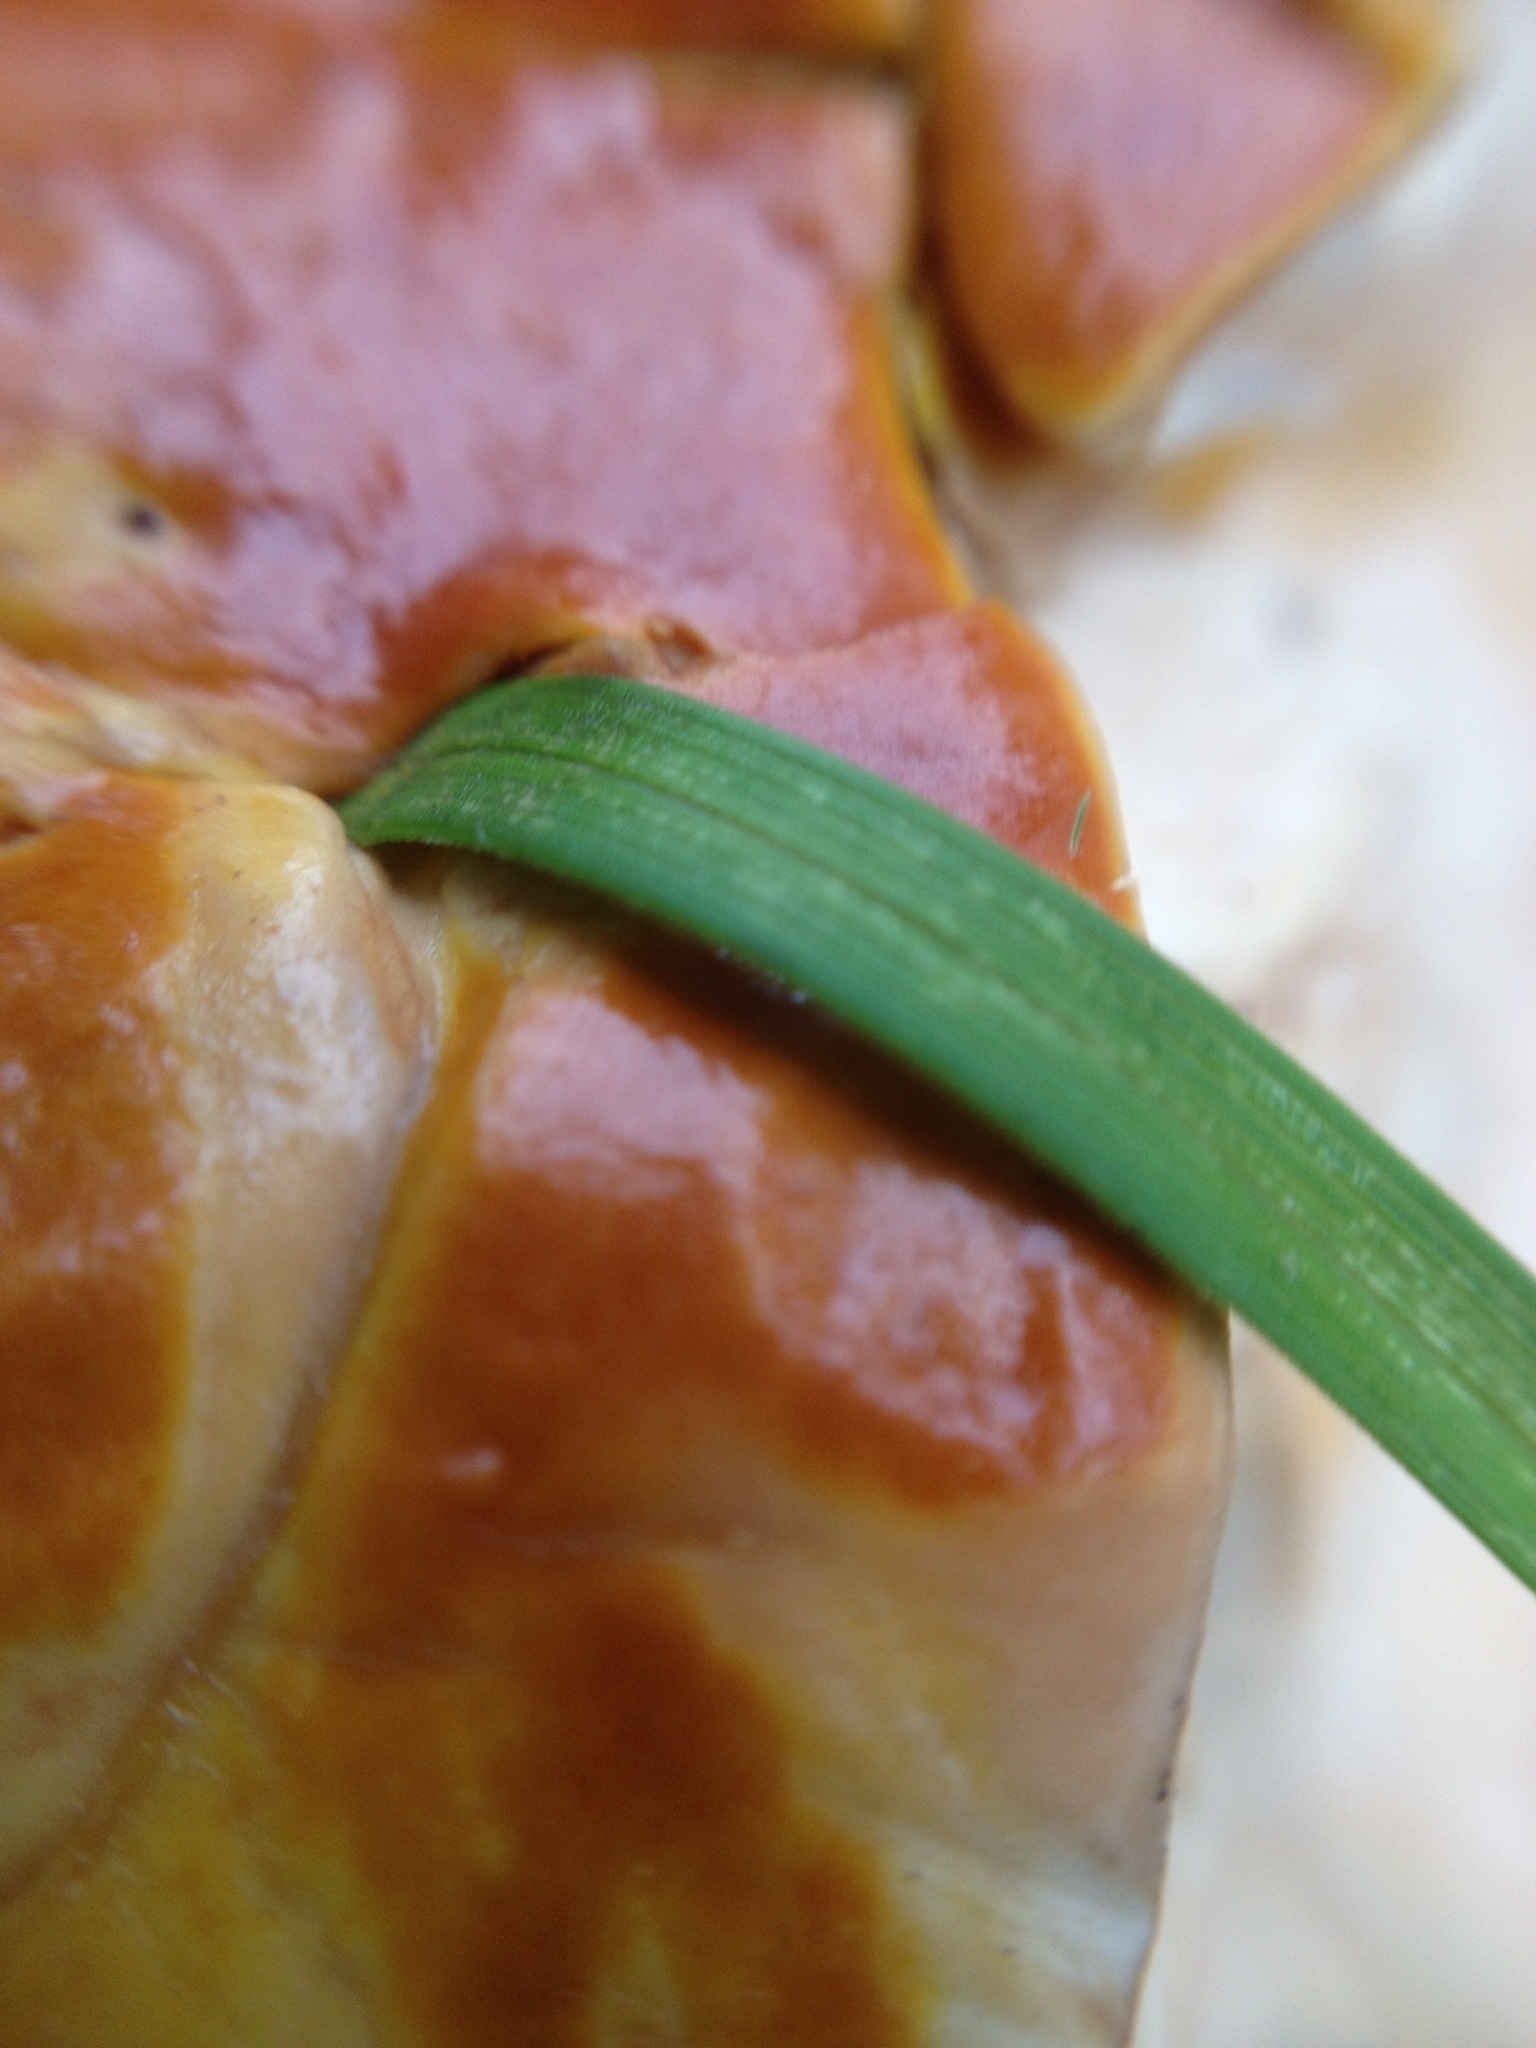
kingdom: Fungi
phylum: Basidiomycota
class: Agaricomycetes
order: Polyporales
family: Polyporaceae
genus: Ganoderma
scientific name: Ganoderma tsugae
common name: Hemlock varnish shelf
